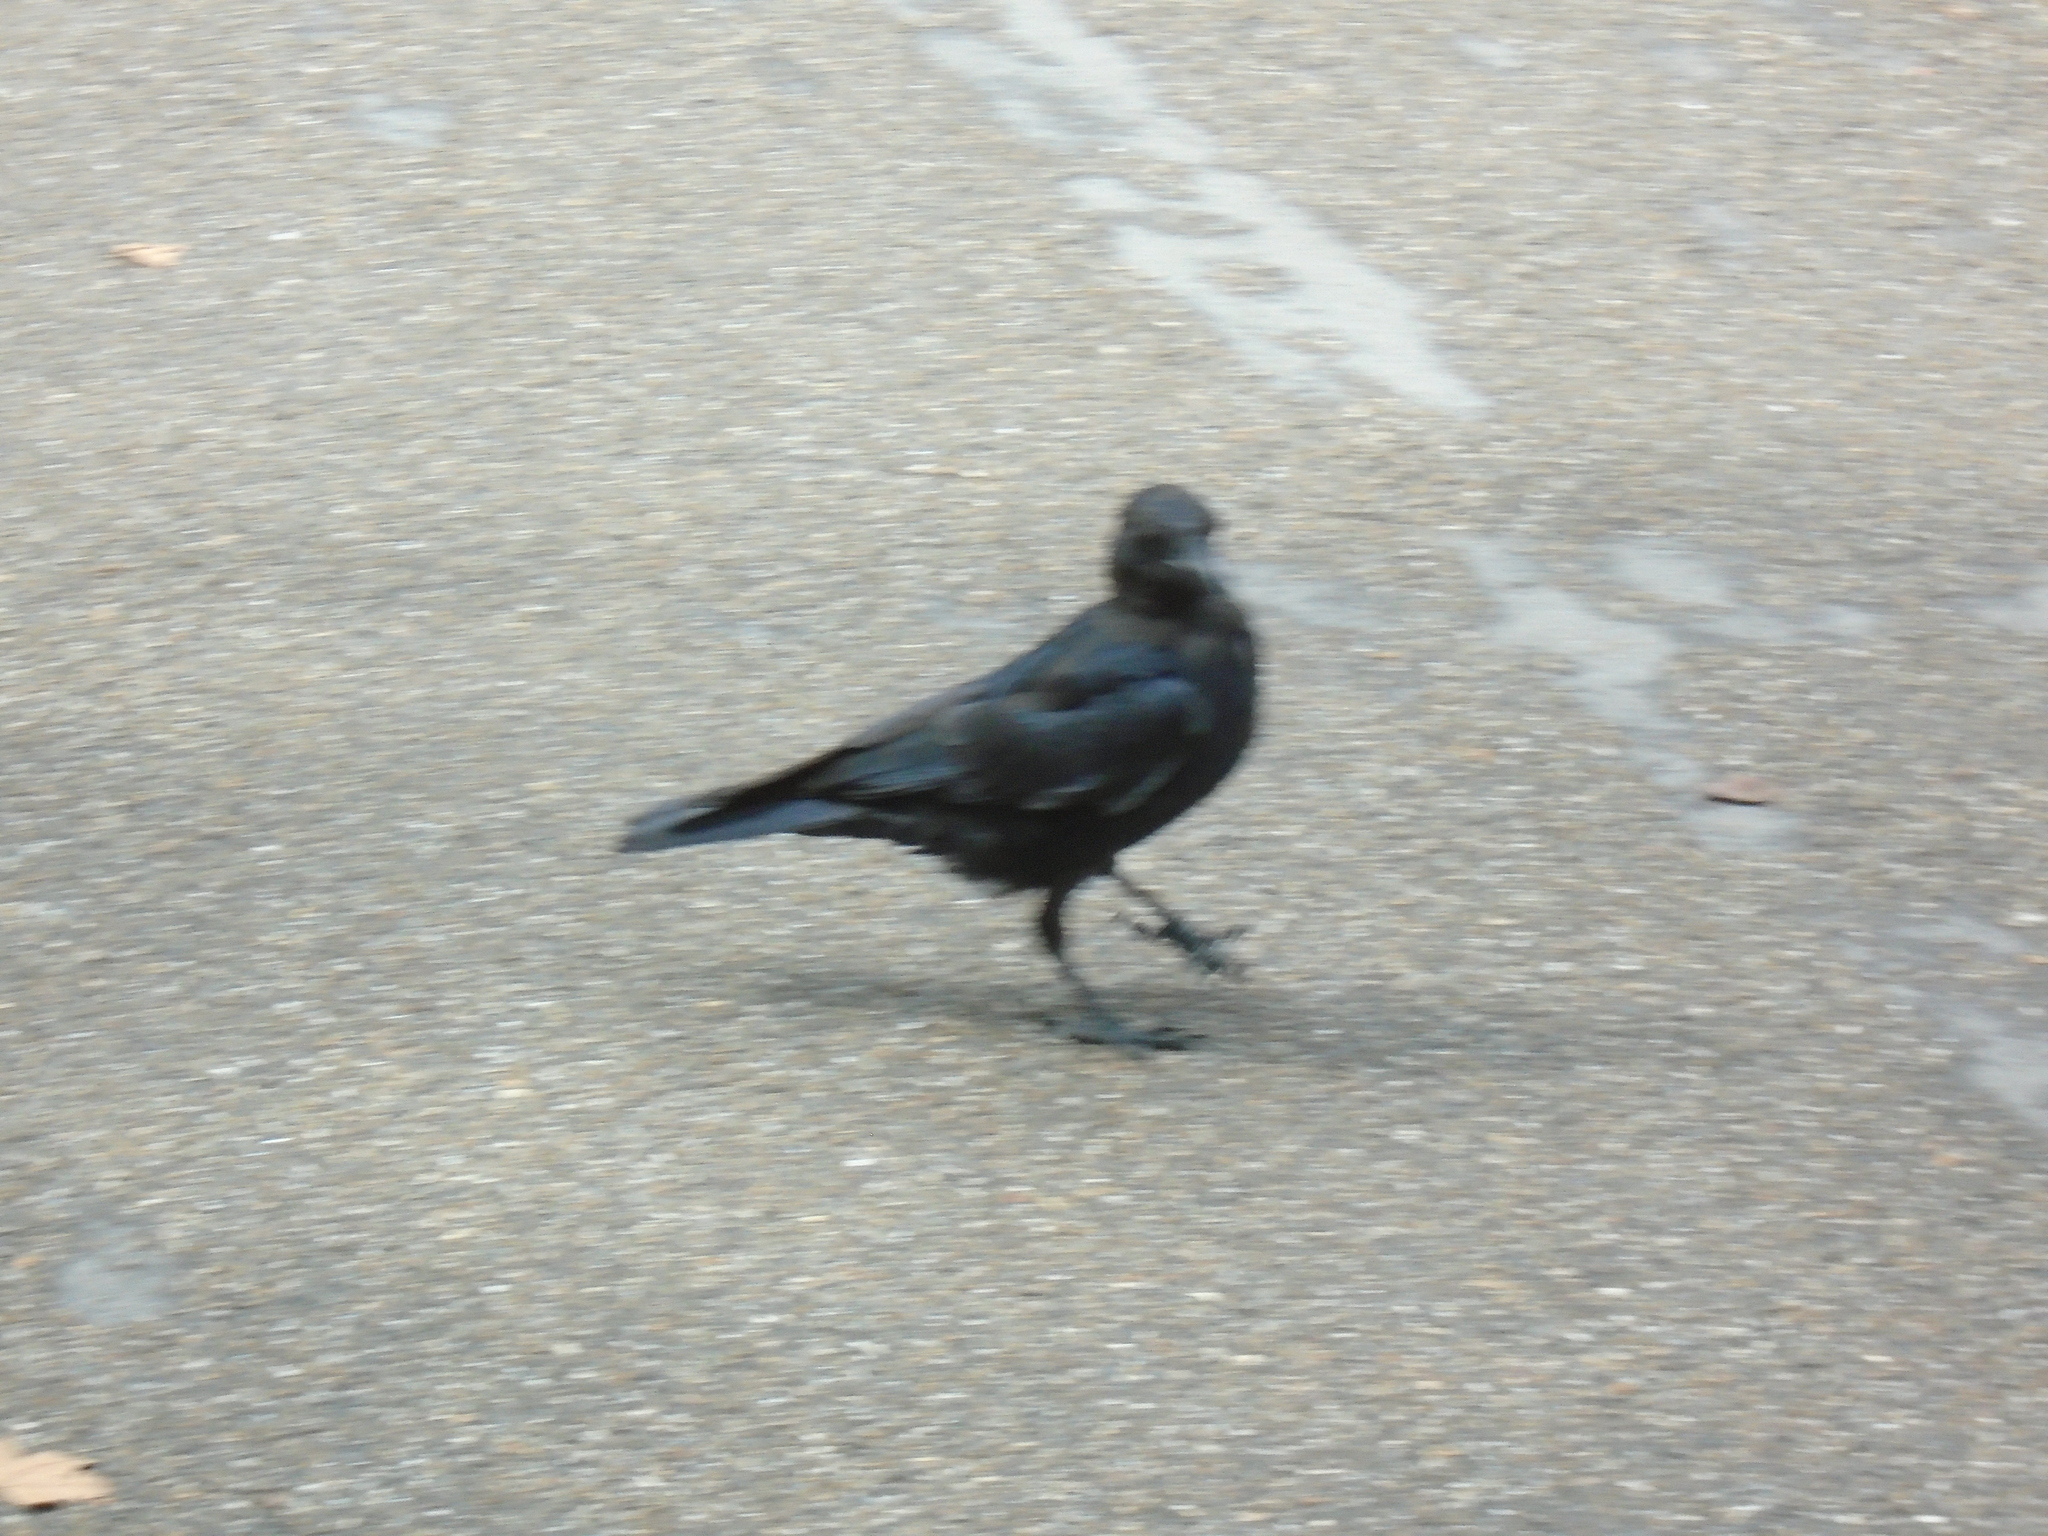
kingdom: Animalia
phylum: Chordata
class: Aves
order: Passeriformes
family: Corvidae
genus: Corvus
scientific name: Corvus corone
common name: Carrion crow
